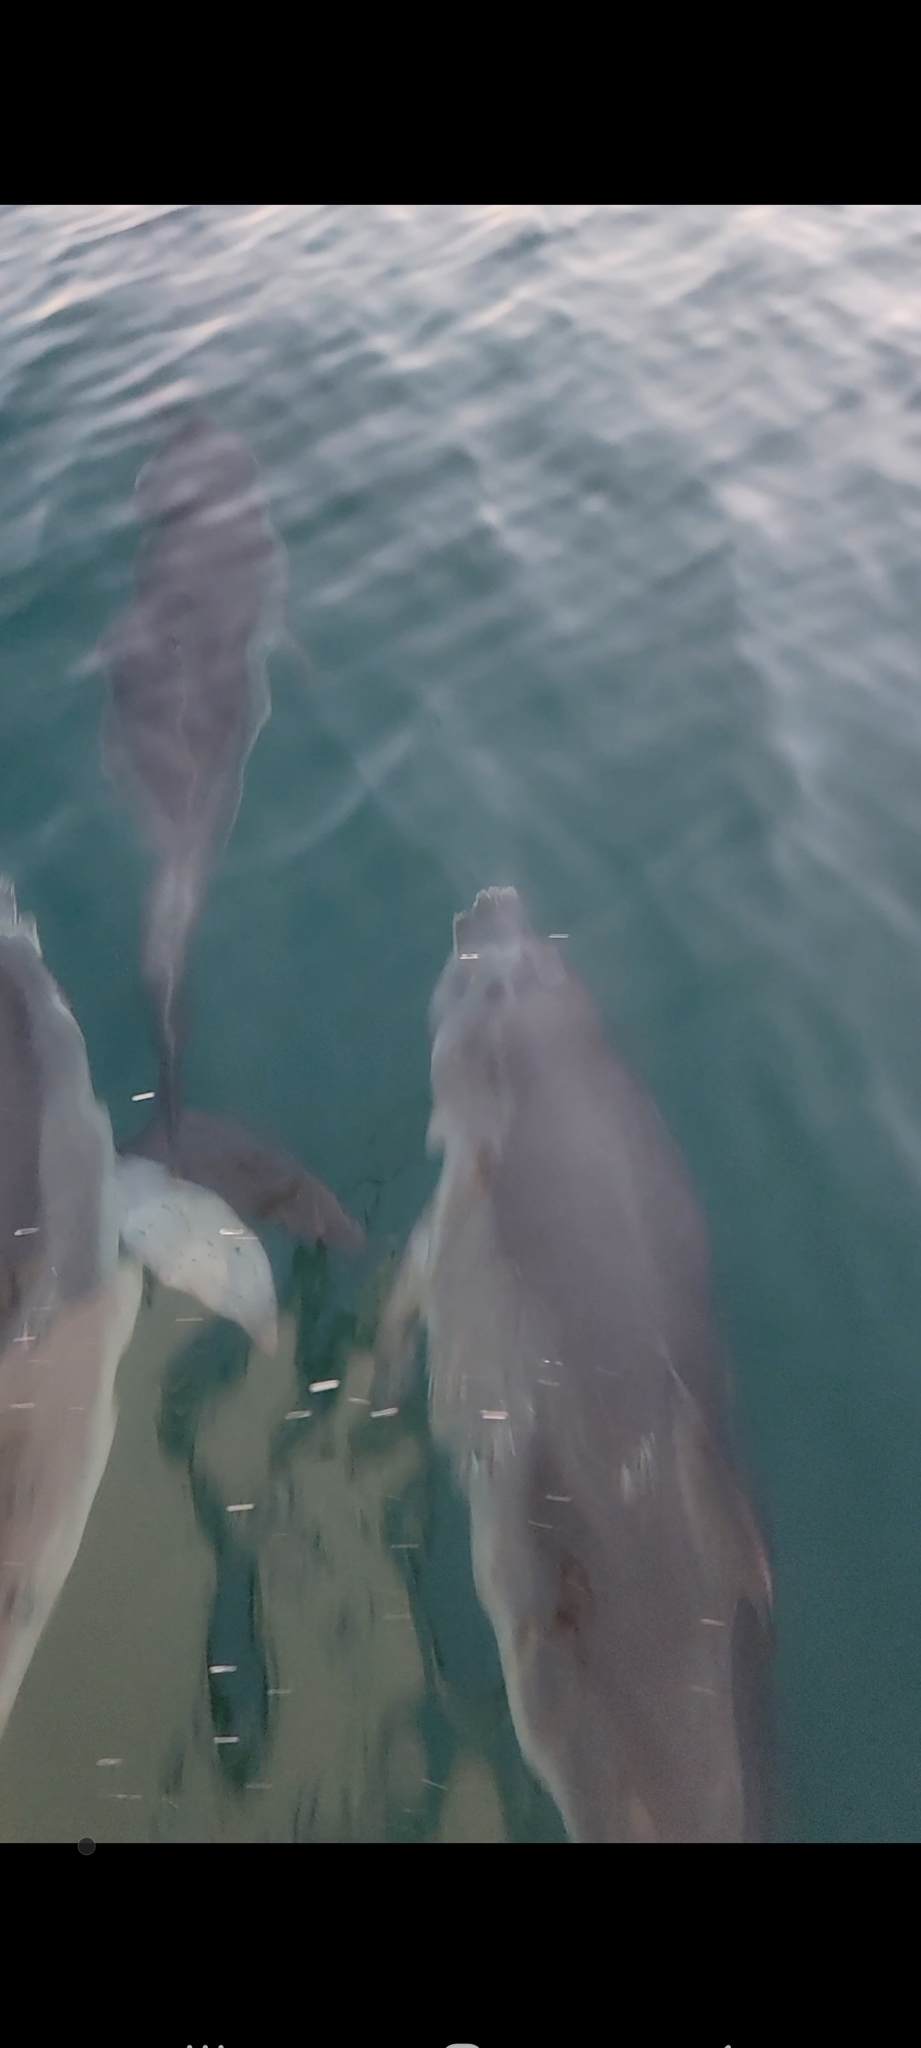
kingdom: Animalia
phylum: Chordata
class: Mammalia
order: Cetacea
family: Delphinidae
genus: Stenella
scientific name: Stenella frontalis
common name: Atlantic spotted dolphin
